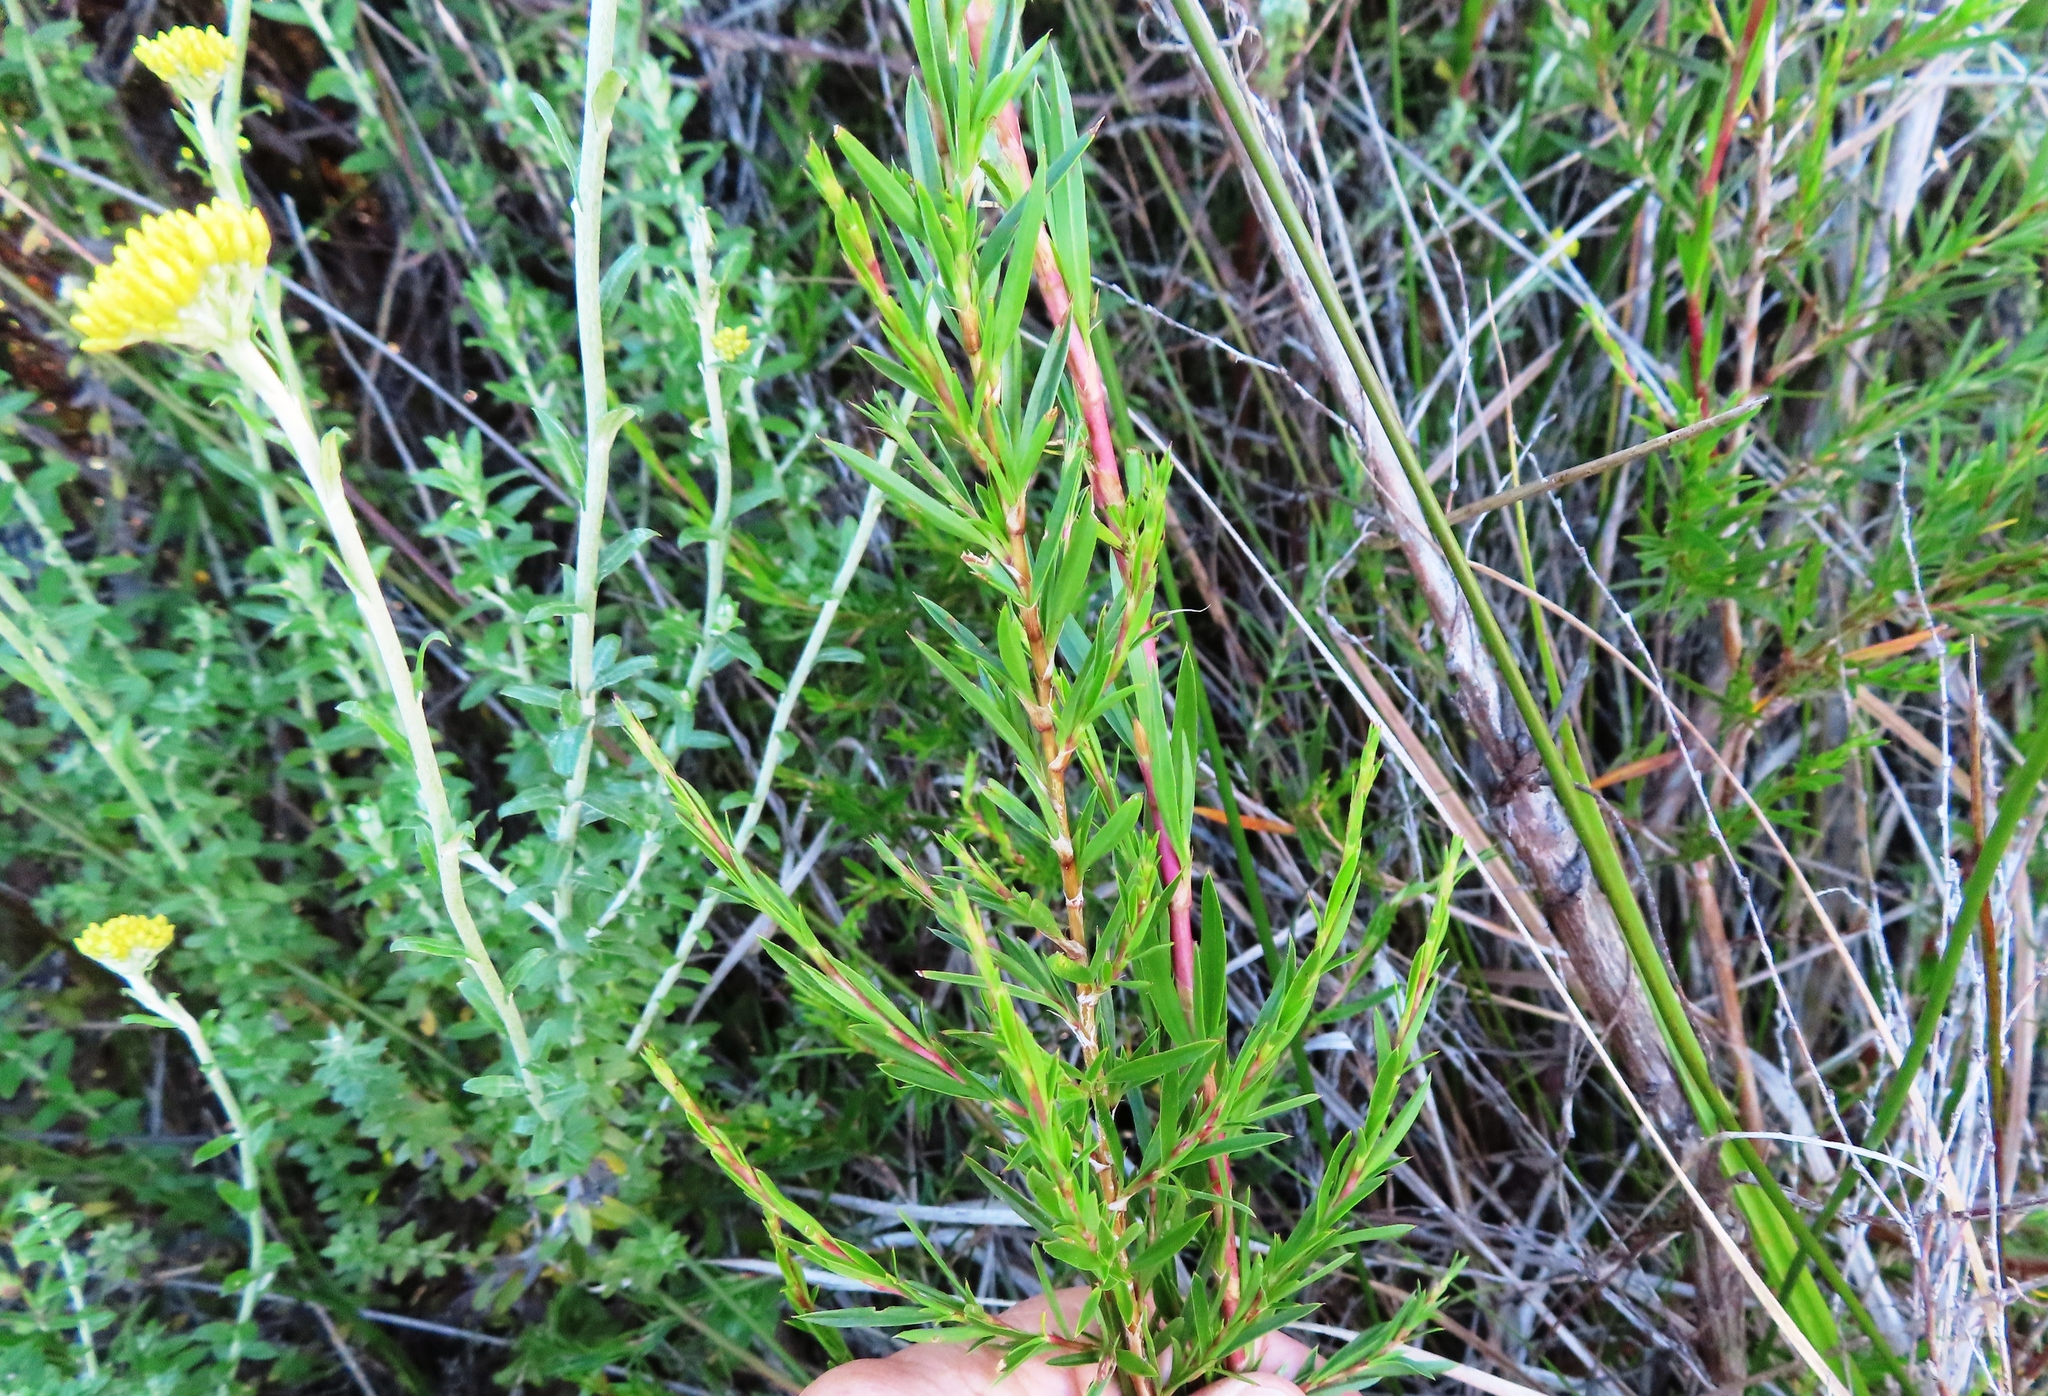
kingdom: Plantae
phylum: Tracheophyta
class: Magnoliopsida
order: Rosales
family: Rosaceae
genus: Cliffortia
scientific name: Cliffortia strobilifera
